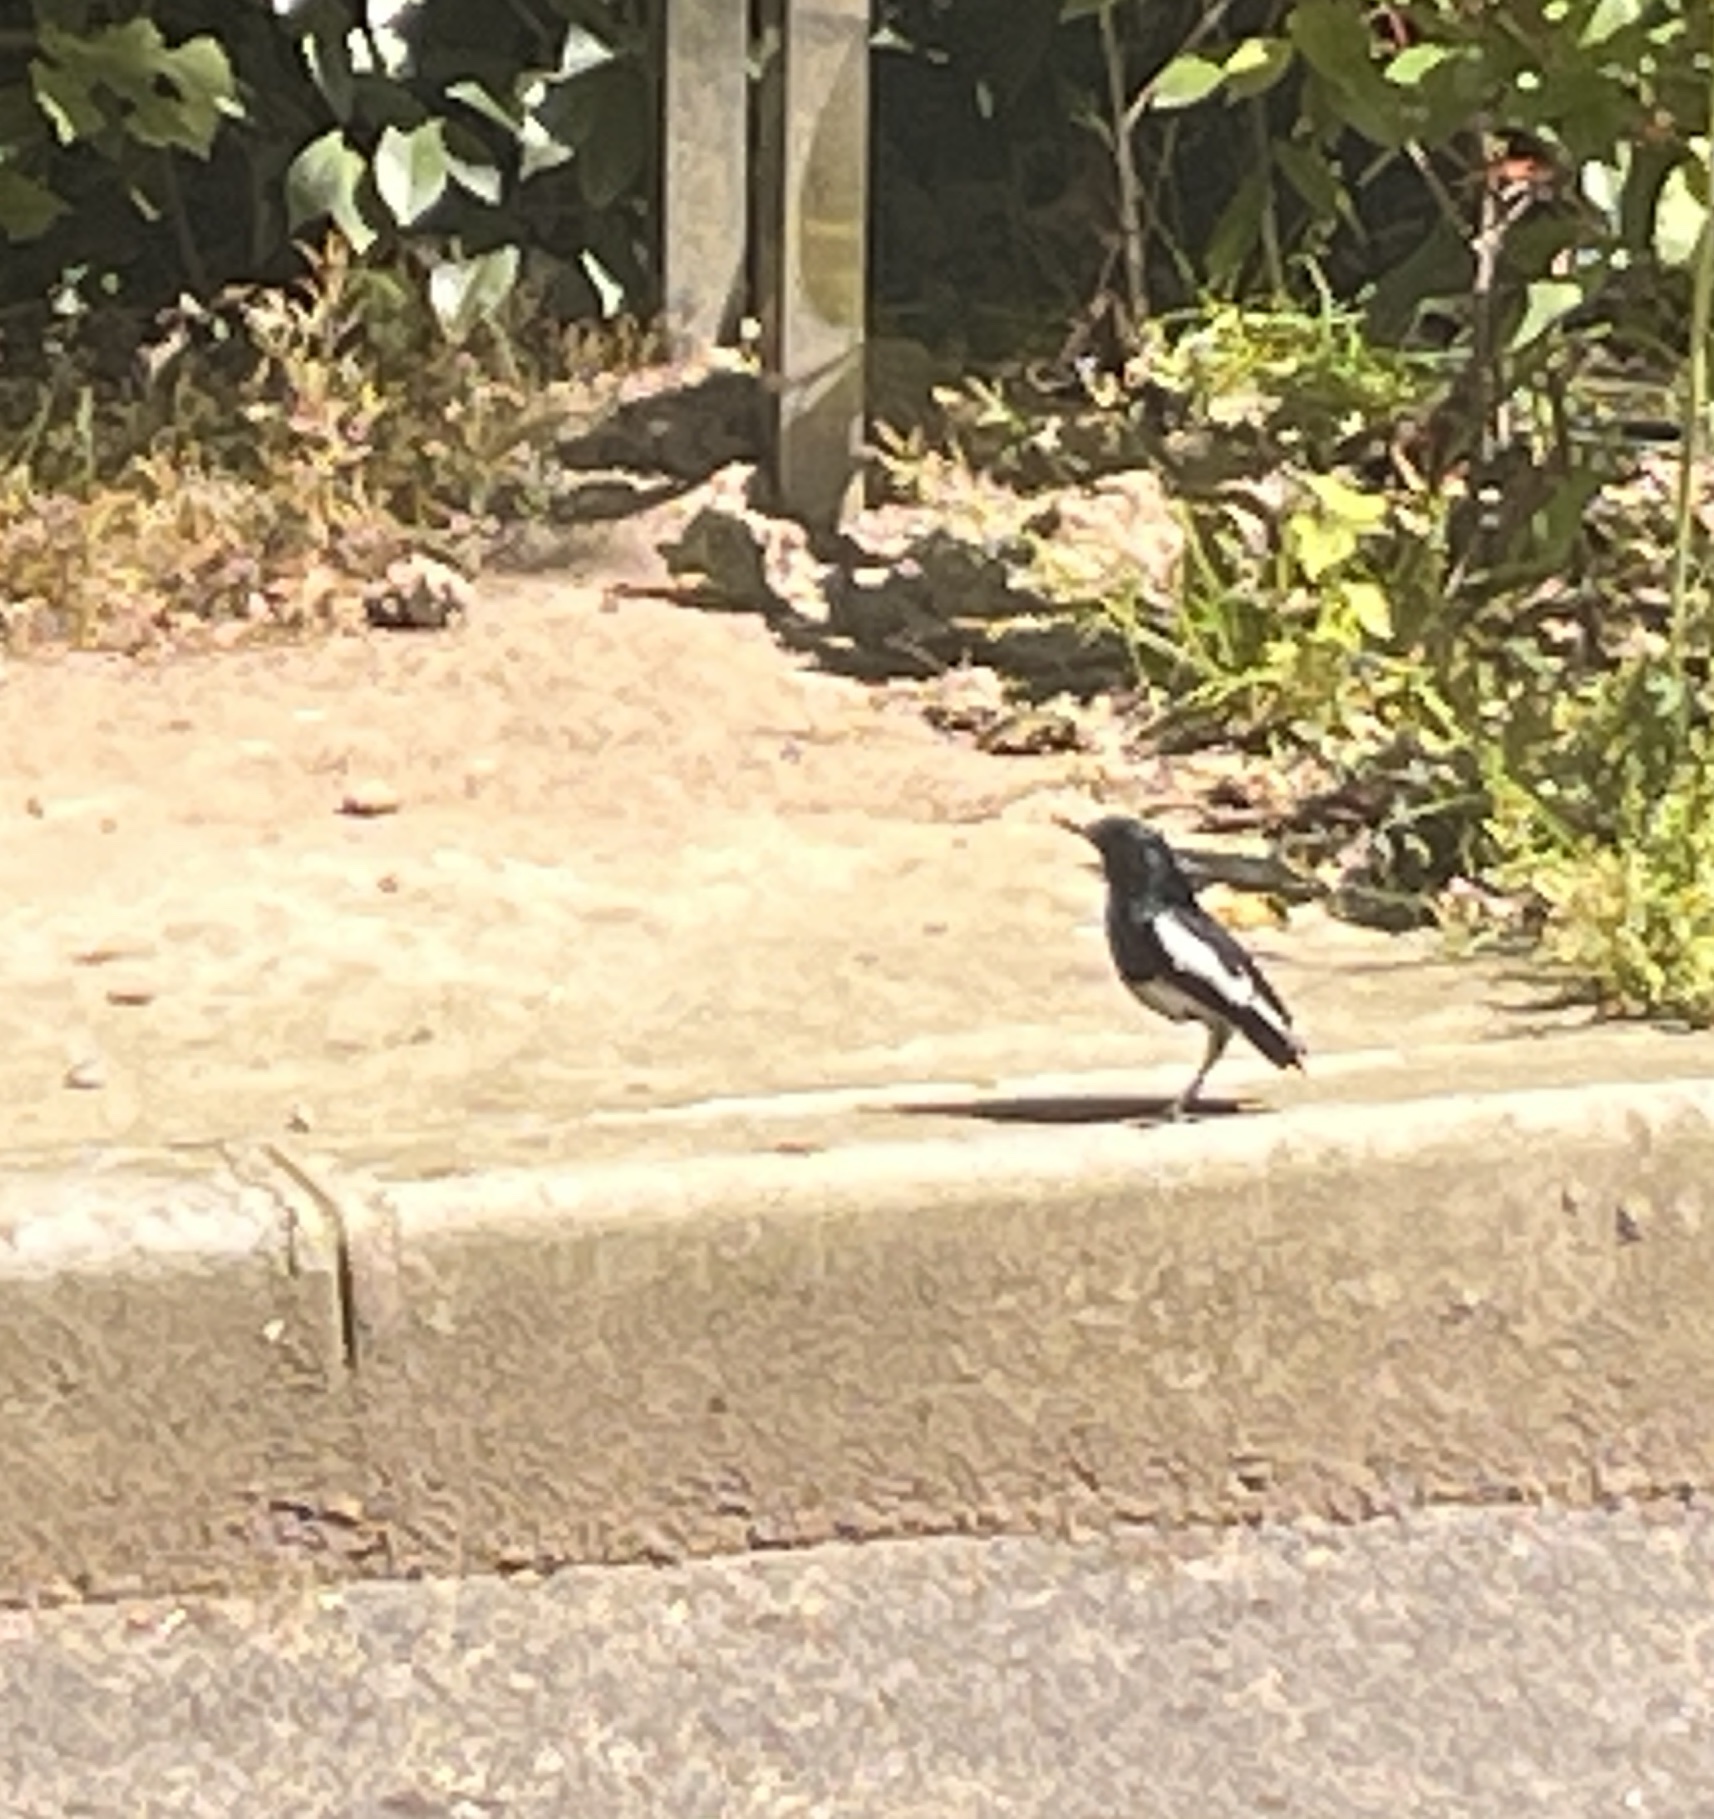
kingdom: Animalia
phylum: Chordata
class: Aves
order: Passeriformes
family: Muscicapidae
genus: Copsychus
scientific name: Copsychus saularis
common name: Oriental magpie-robin
